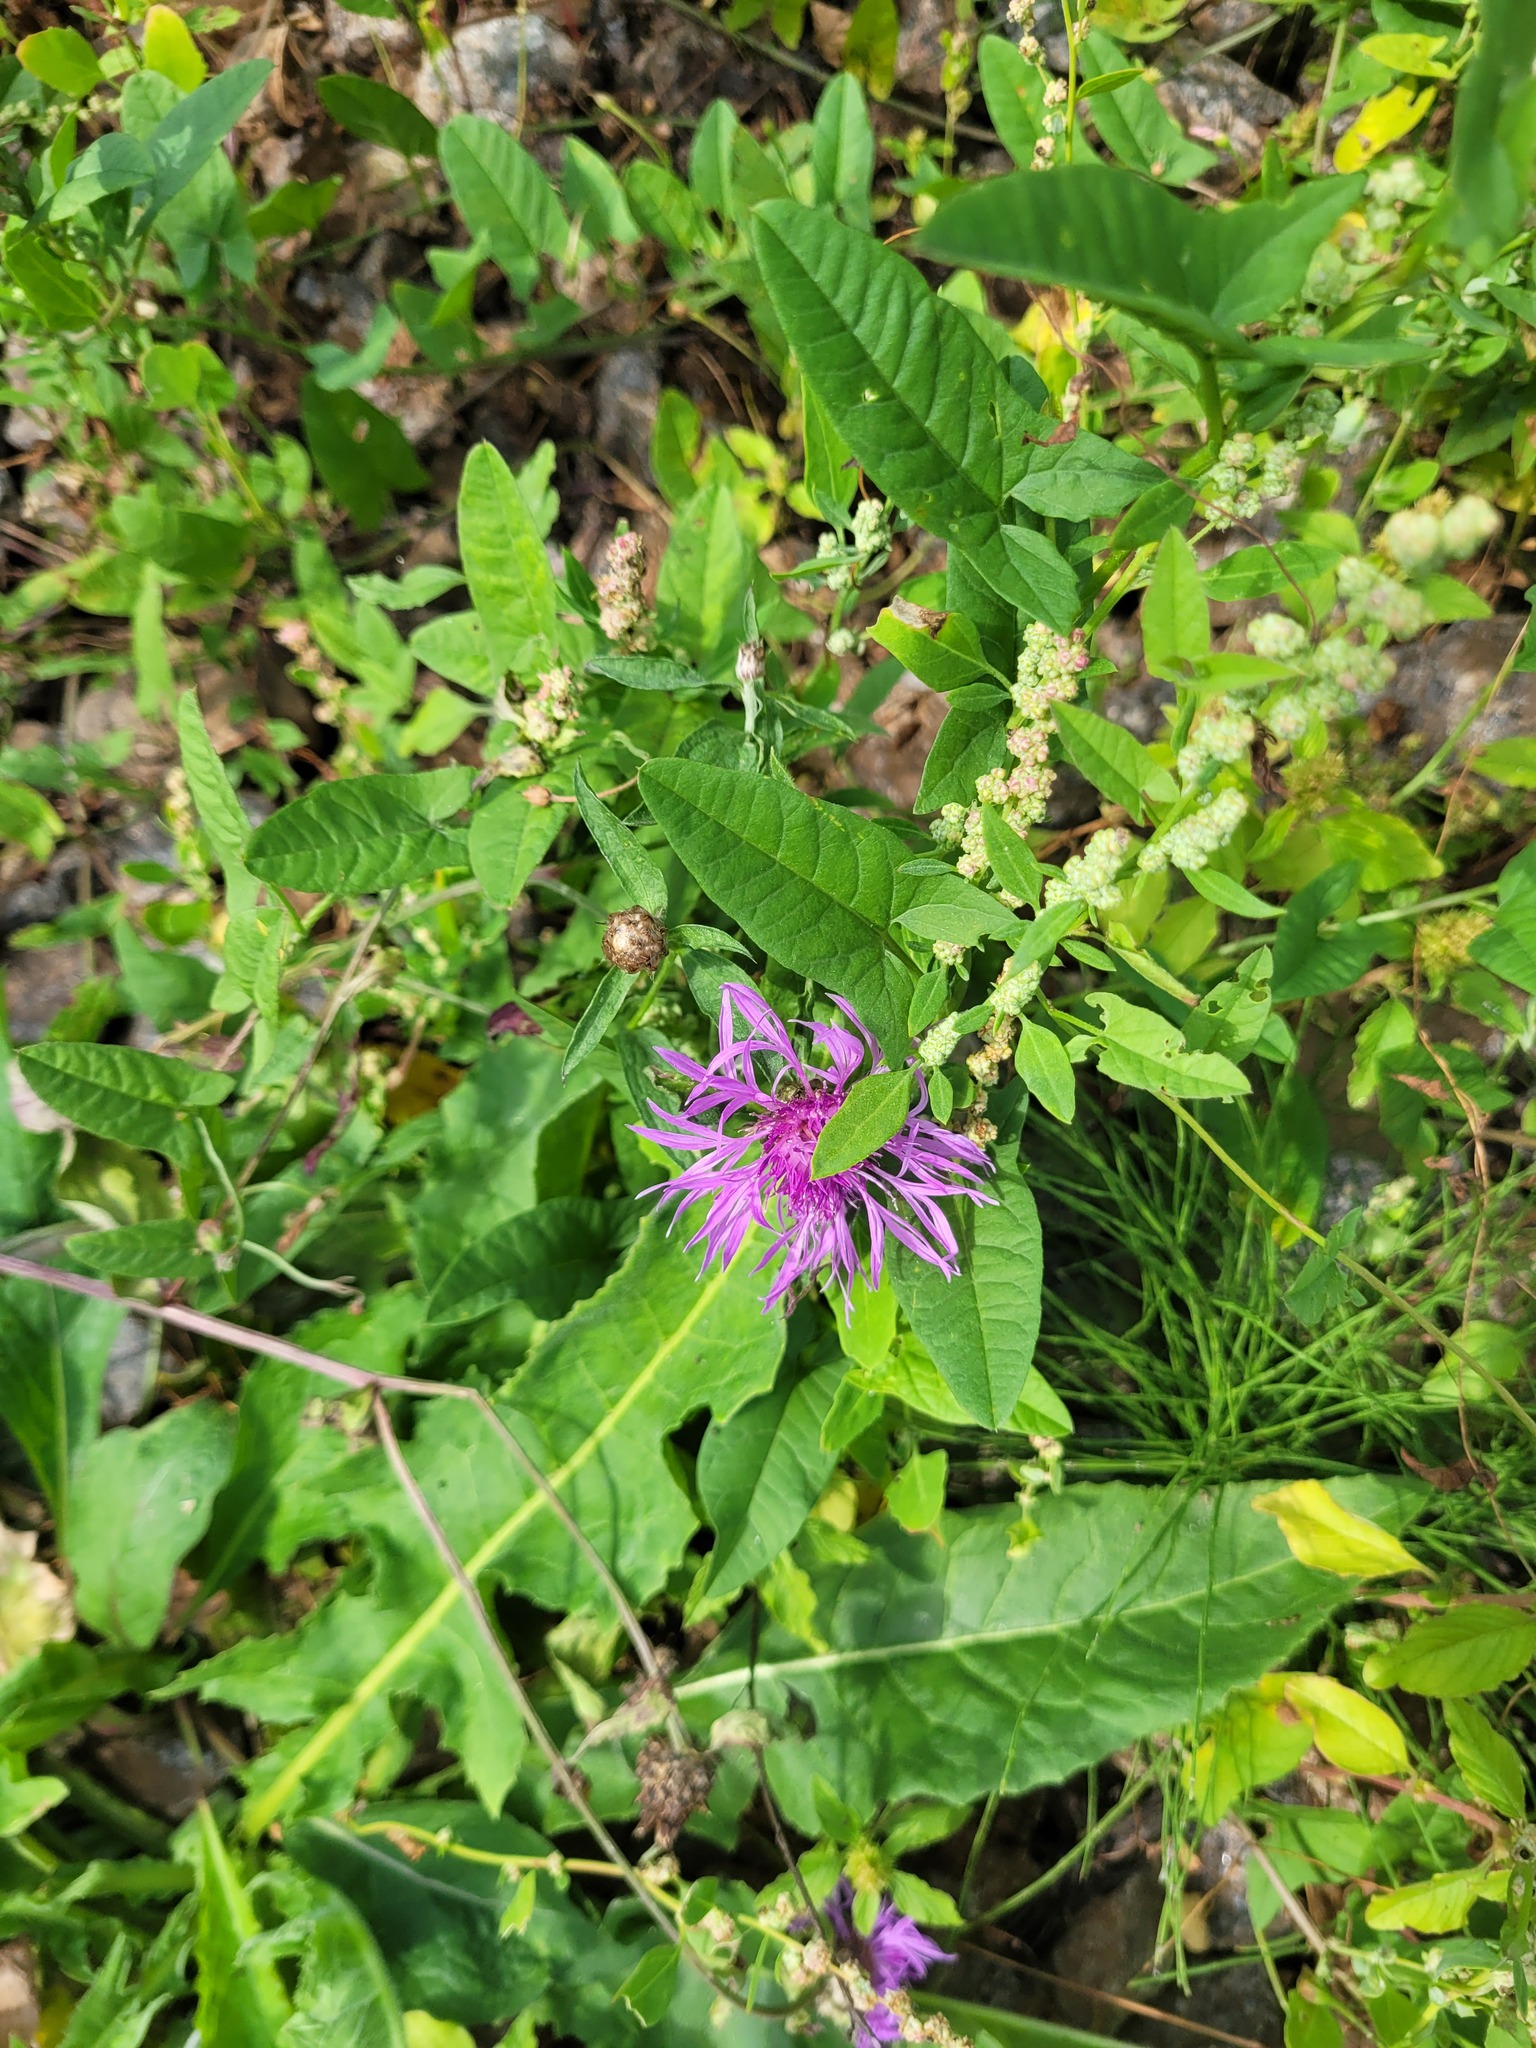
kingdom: Plantae
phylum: Tracheophyta
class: Magnoliopsida
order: Asterales
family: Asteraceae
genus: Centaurea
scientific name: Centaurea jacea
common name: Brown knapweed
